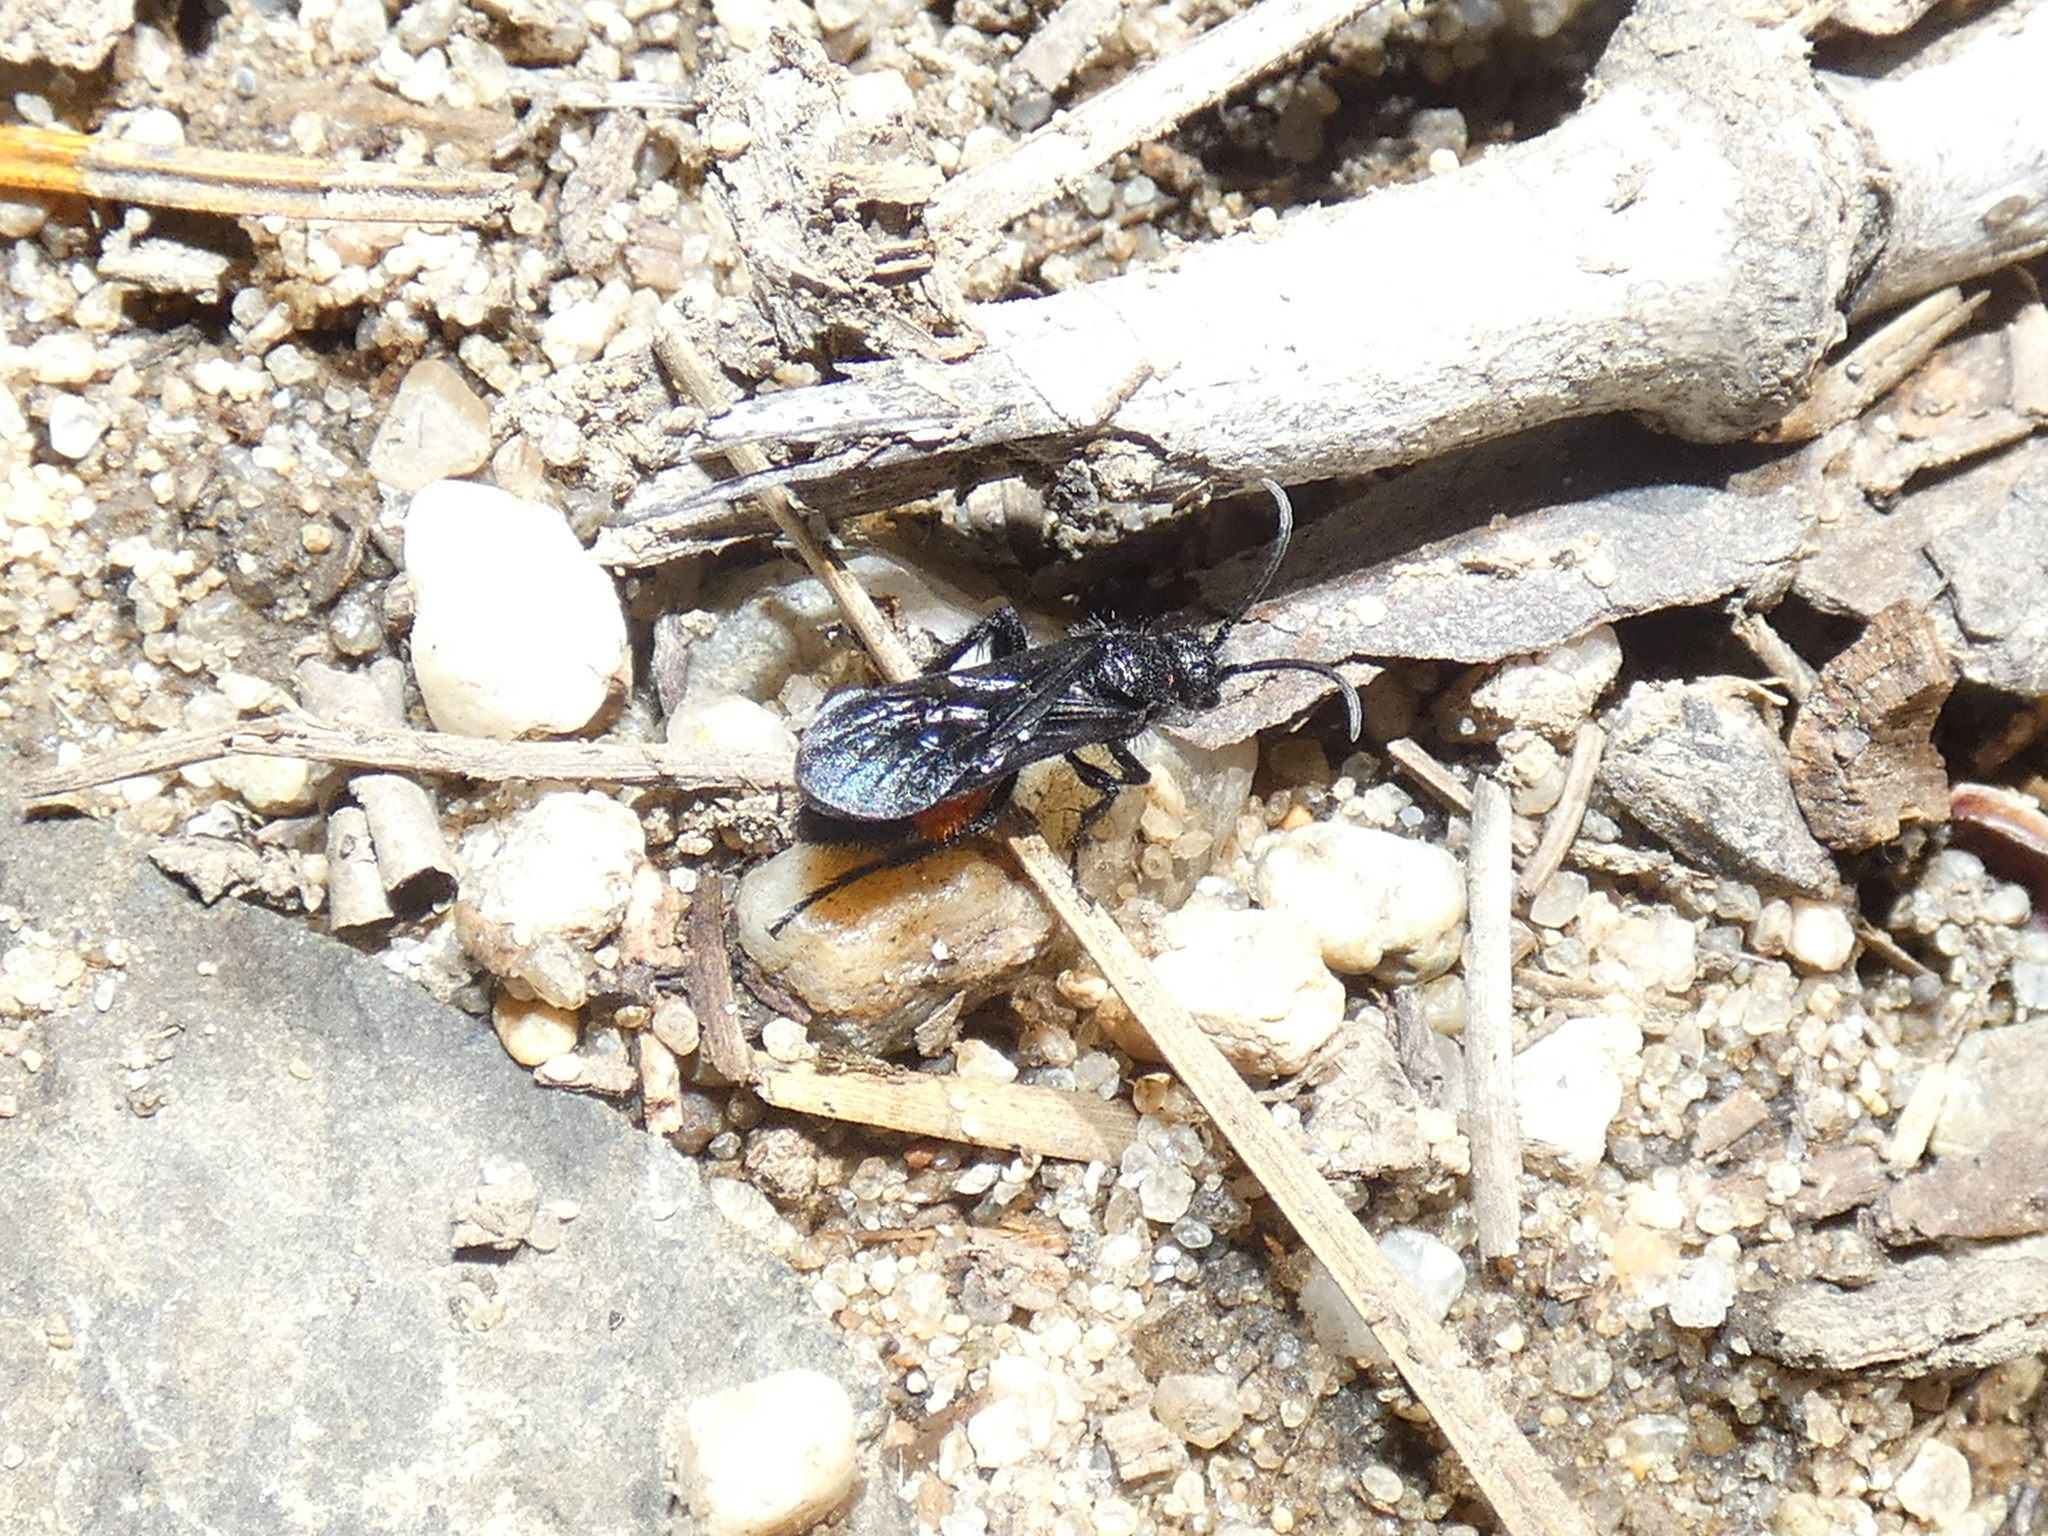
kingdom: Animalia
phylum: Arthropoda
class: Insecta
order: Hymenoptera
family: Mutillidae
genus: Dasymutilla
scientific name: Dasymutilla
